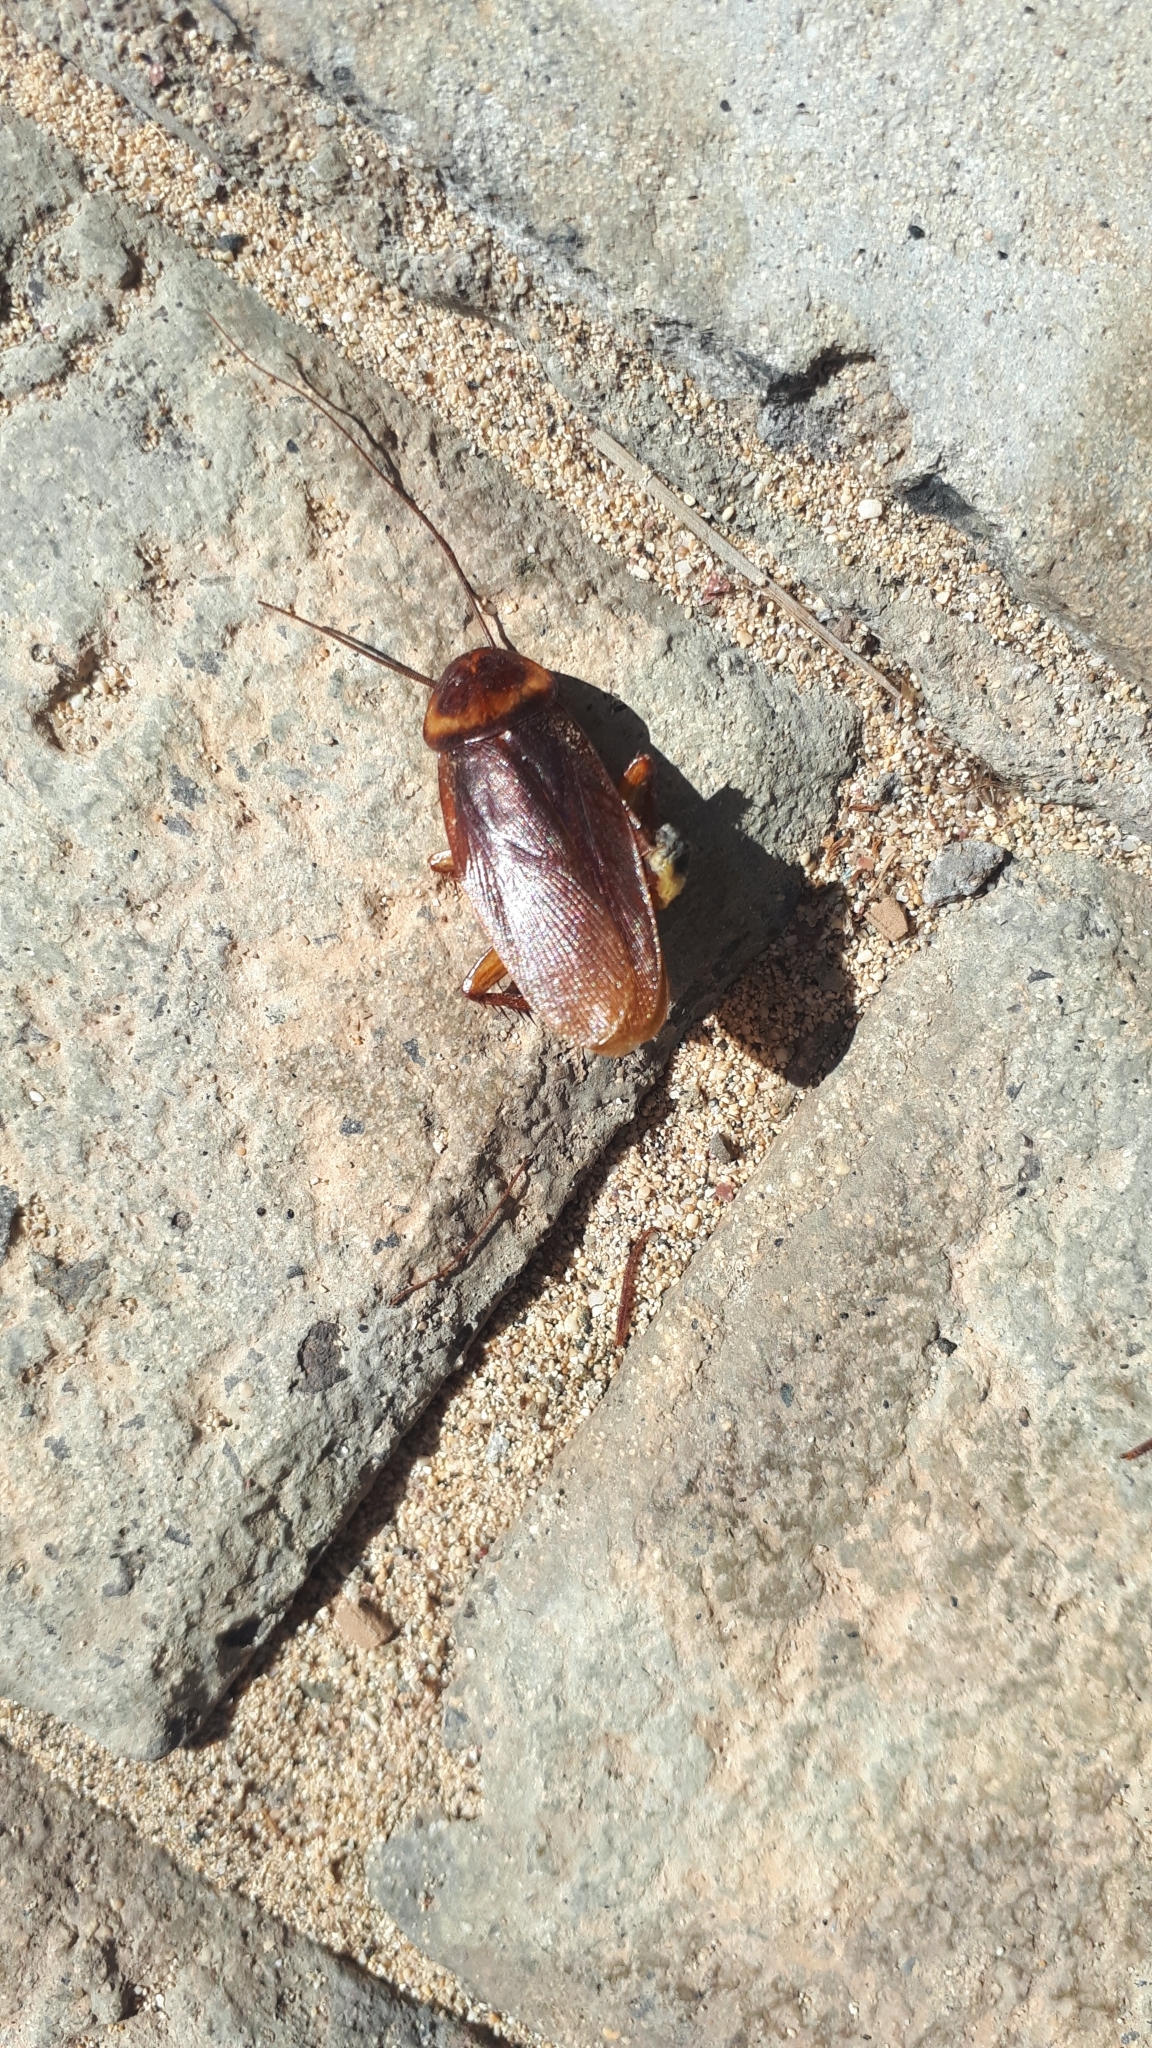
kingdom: Animalia
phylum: Arthropoda
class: Insecta
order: Blattodea
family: Blattidae
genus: Periplaneta
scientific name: Periplaneta americana
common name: American cockroach
